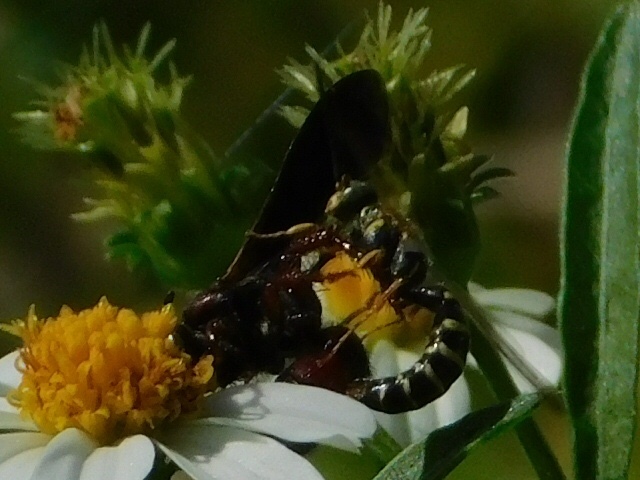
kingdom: Animalia
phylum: Arthropoda
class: Insecta
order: Hymenoptera
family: Scoliidae
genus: Scolia
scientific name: Scolia nobilitata
